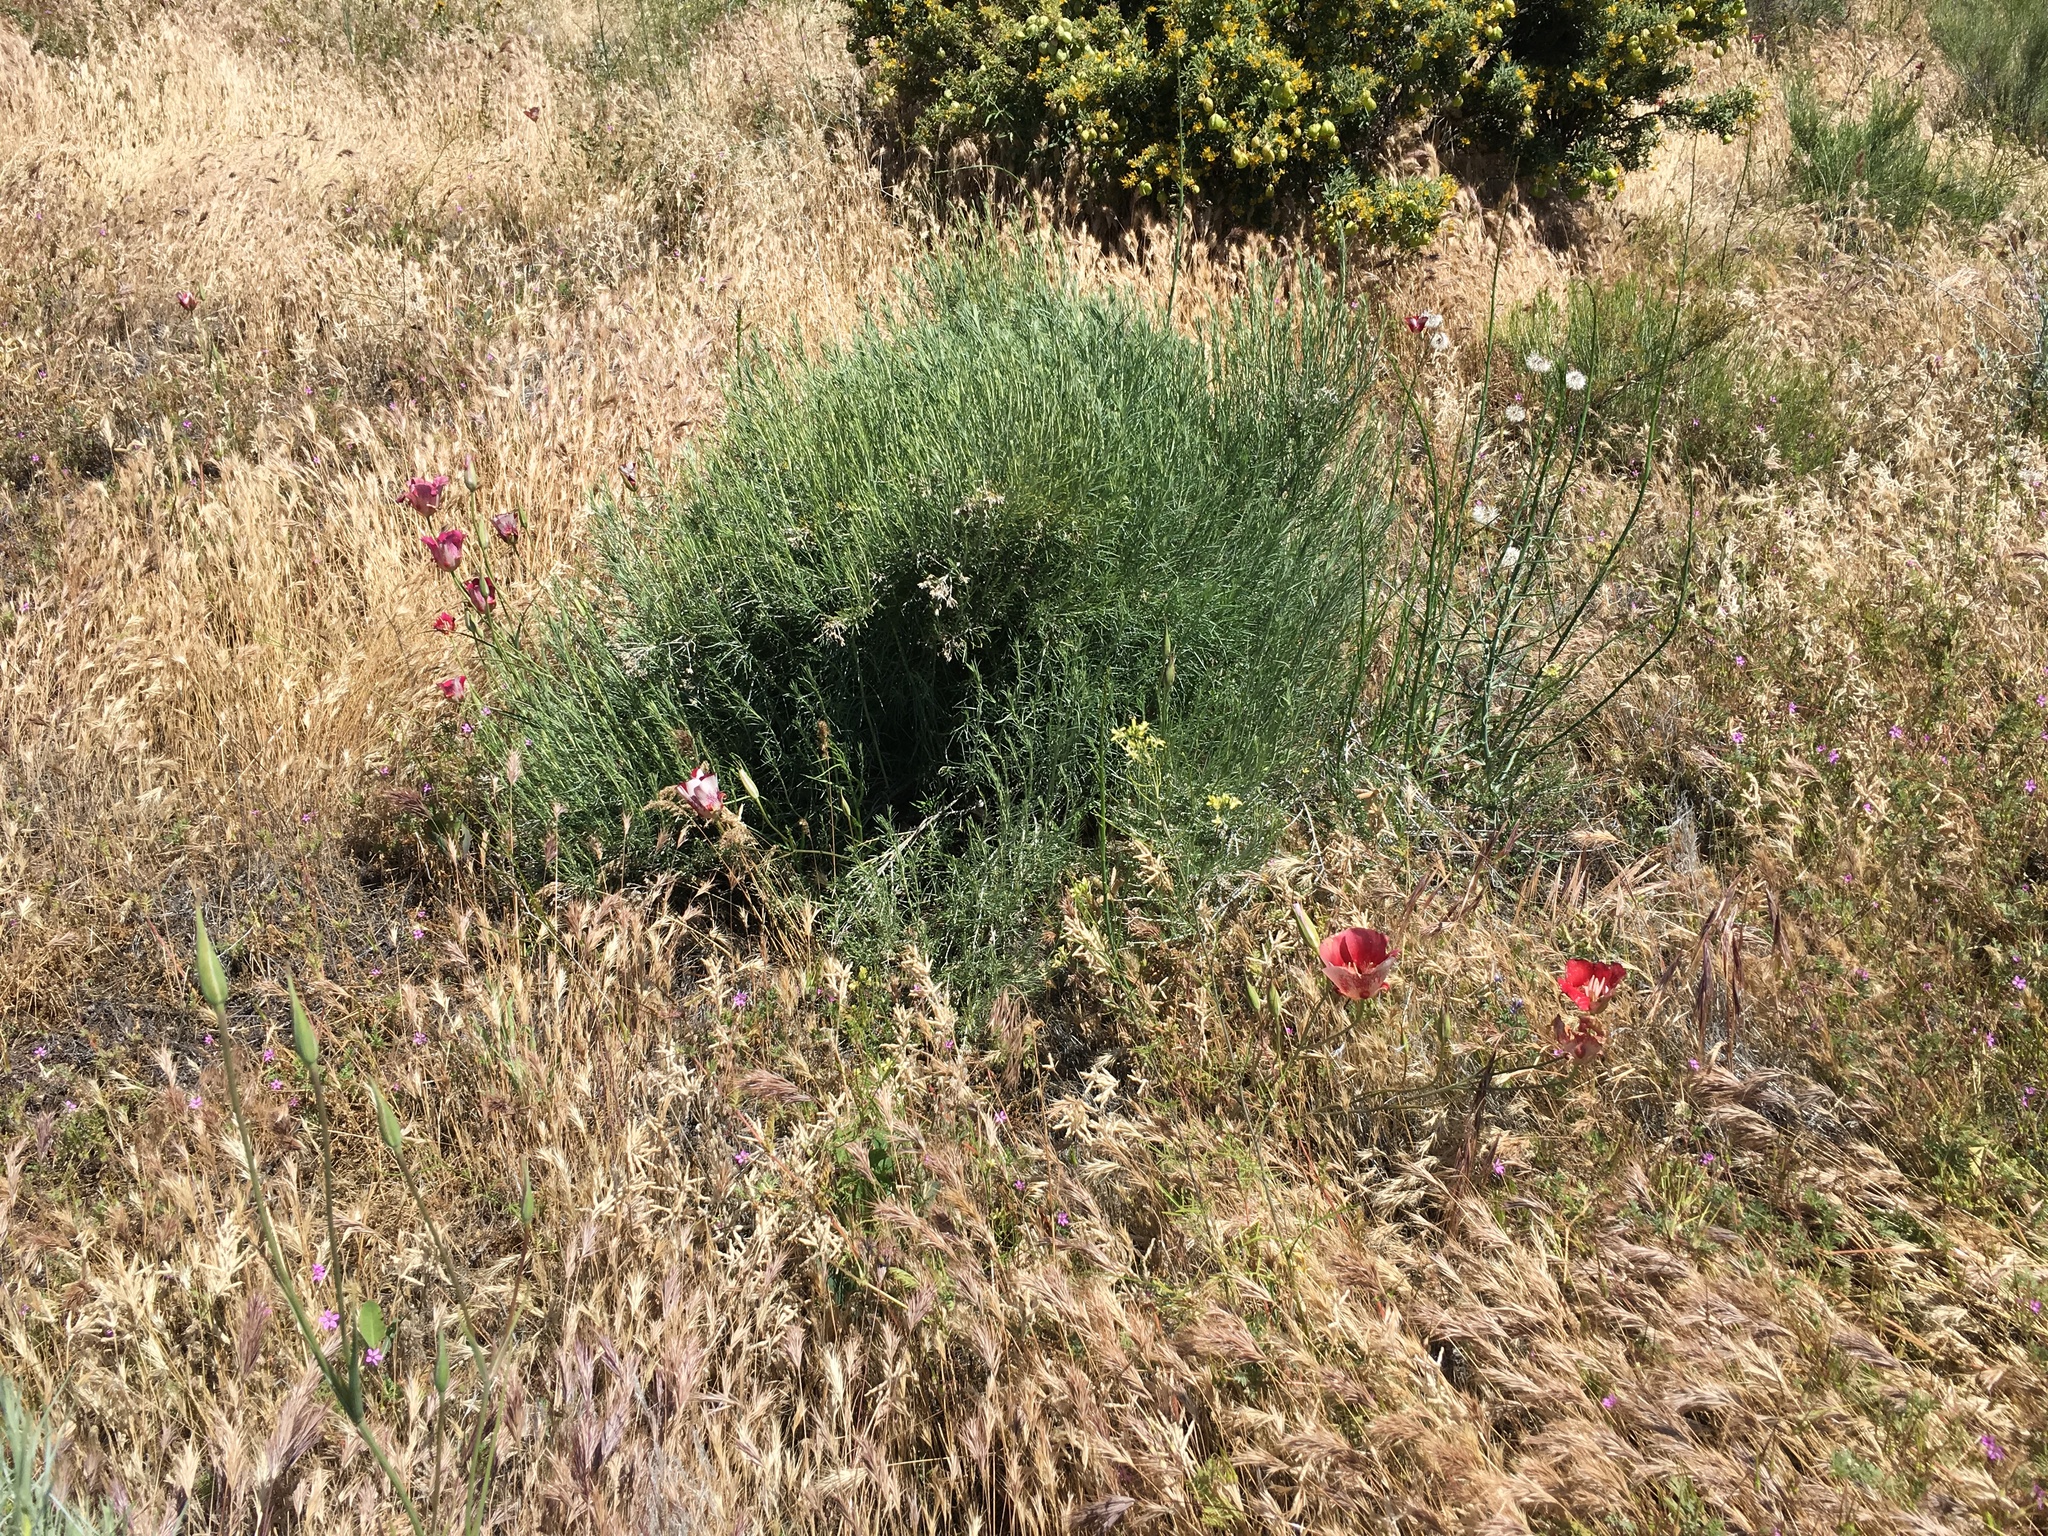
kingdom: Plantae
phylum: Tracheophyta
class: Liliopsida
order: Liliales
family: Liliaceae
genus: Calochortus
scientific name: Calochortus venustus
